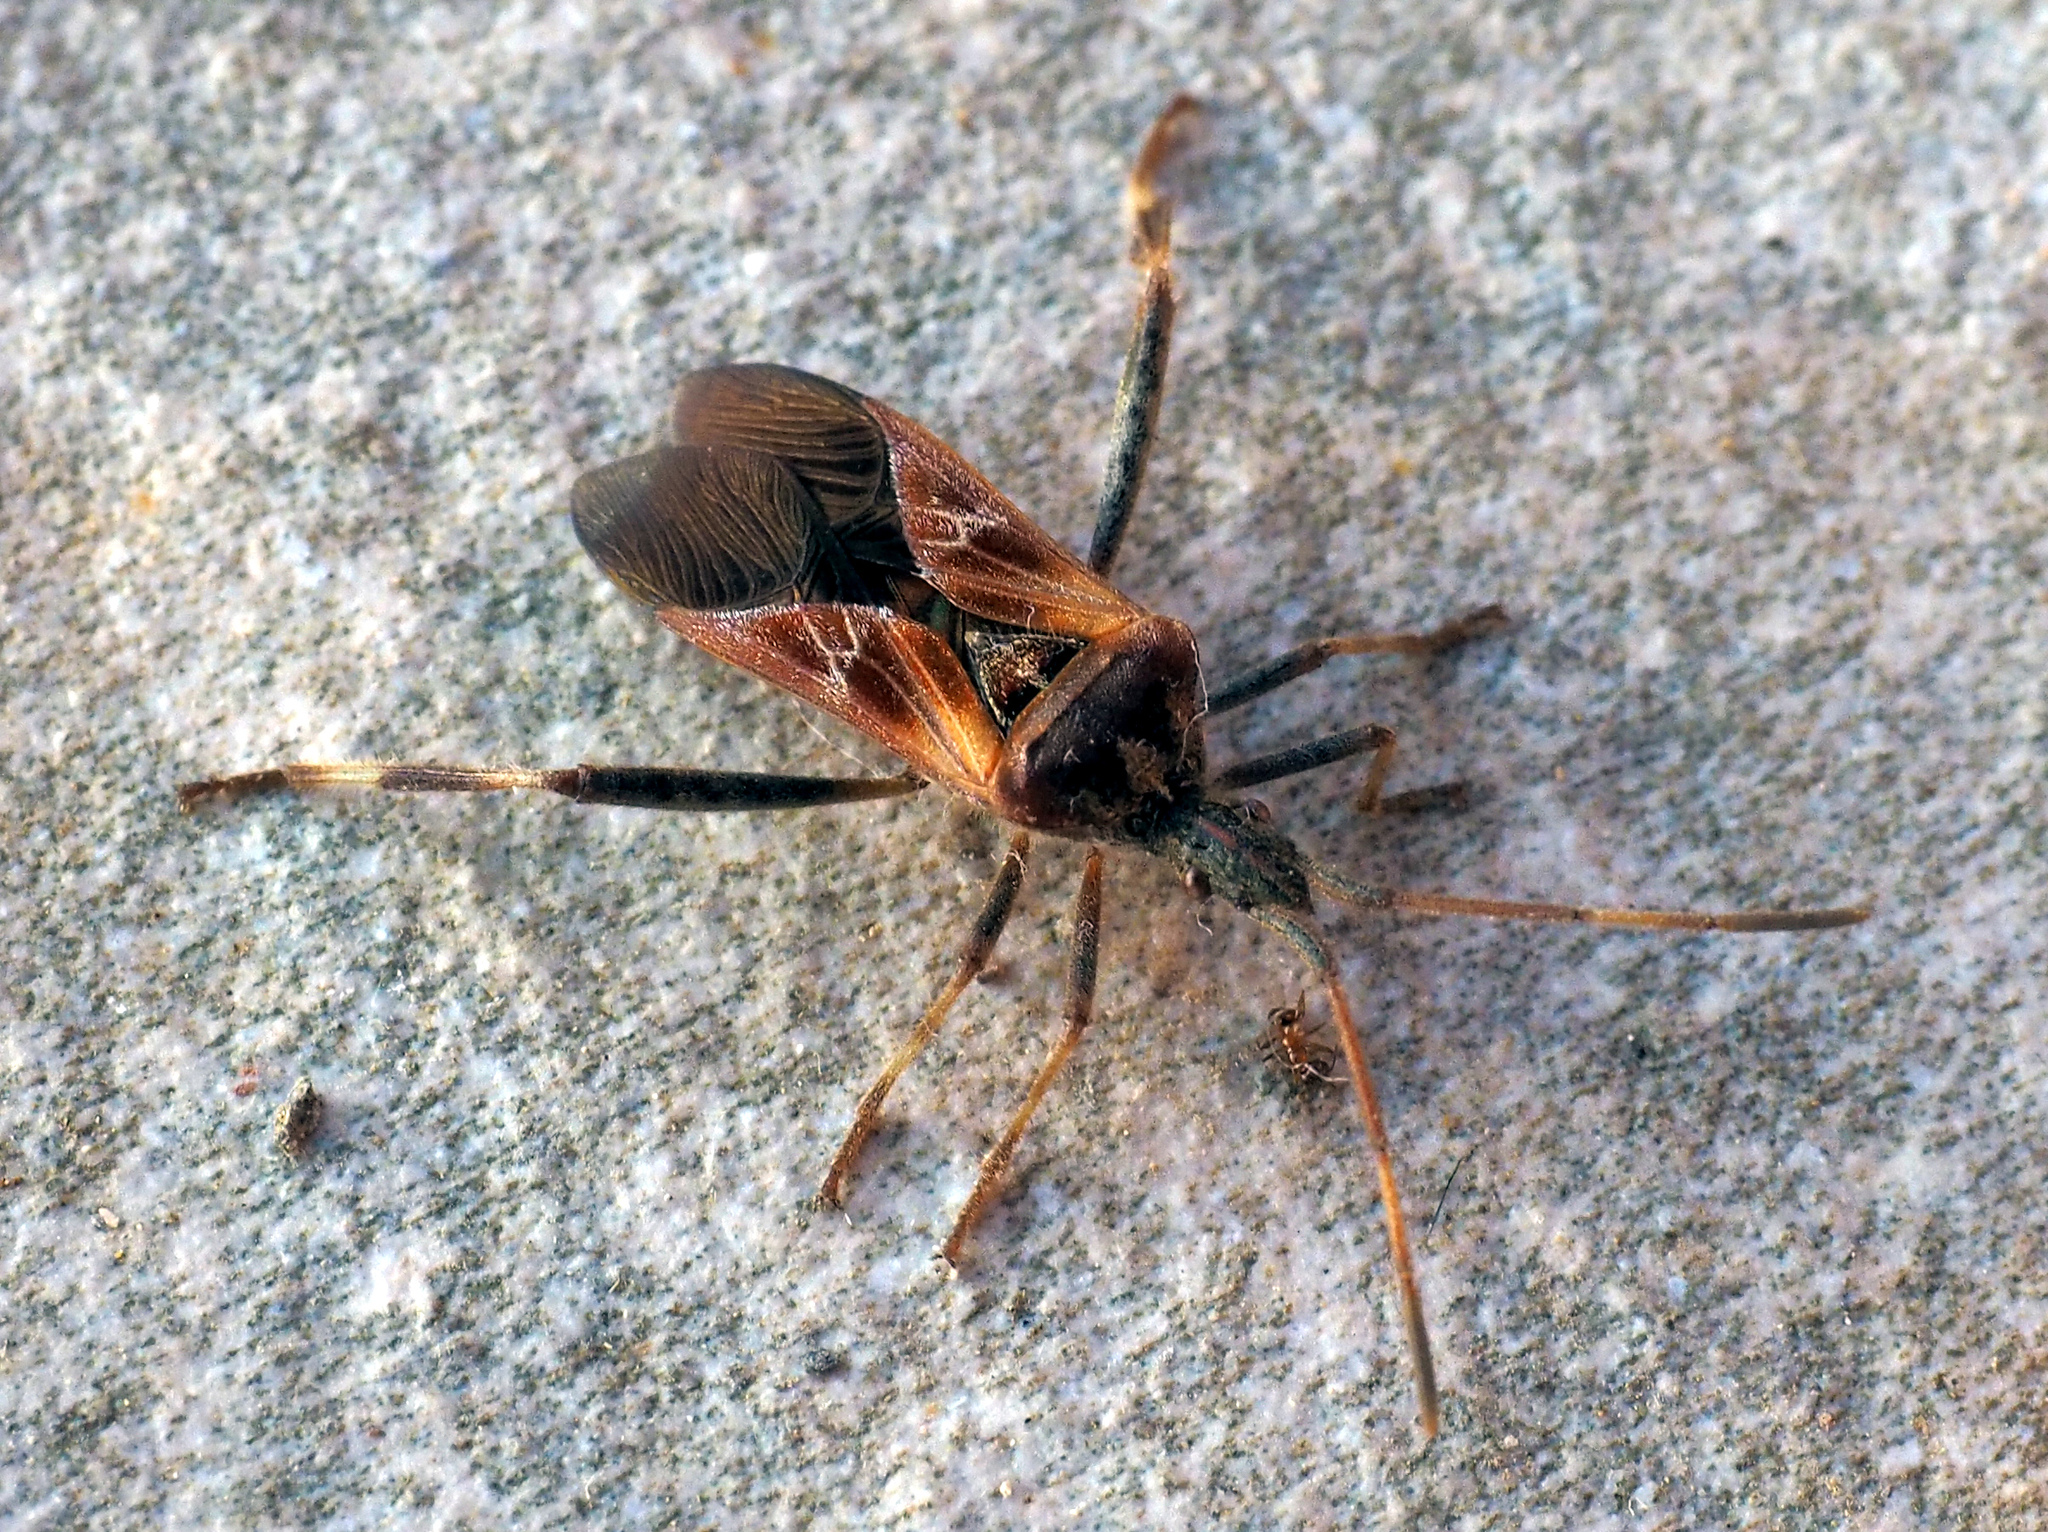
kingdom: Animalia
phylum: Arthropoda
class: Insecta
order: Hemiptera
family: Coreidae
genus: Leptoglossus
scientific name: Leptoglossus occidentalis
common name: Western conifer-seed bug
